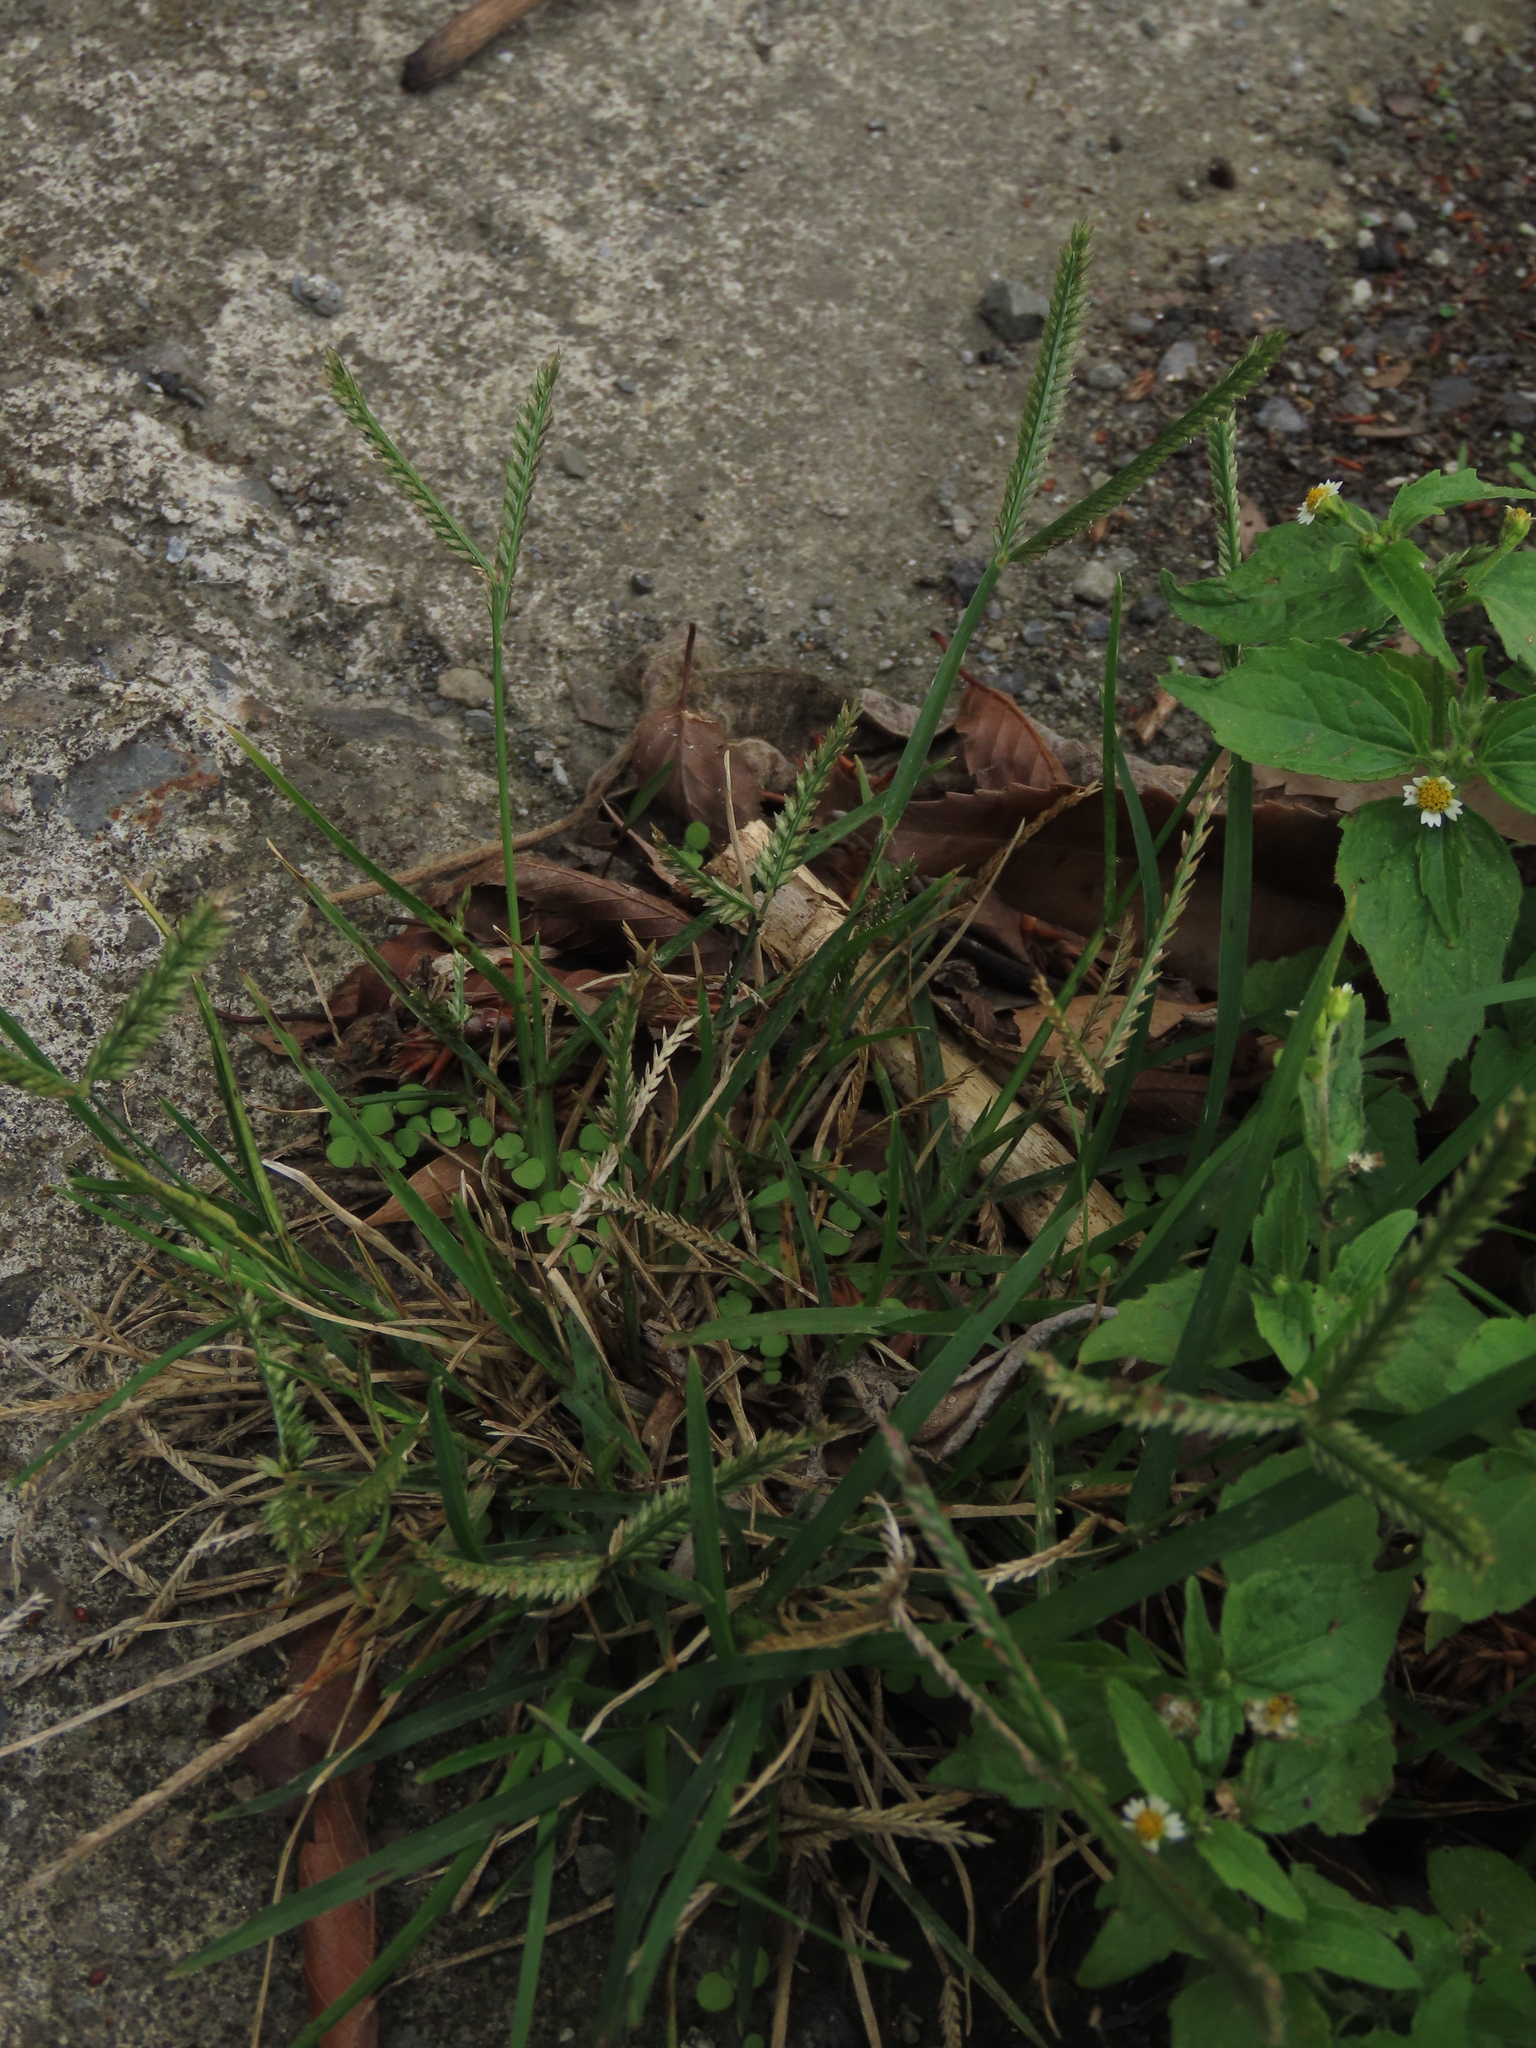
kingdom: Plantae
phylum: Tracheophyta
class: Liliopsida
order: Poales
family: Poaceae
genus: Eleusine
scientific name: Eleusine indica
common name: Yard-grass
